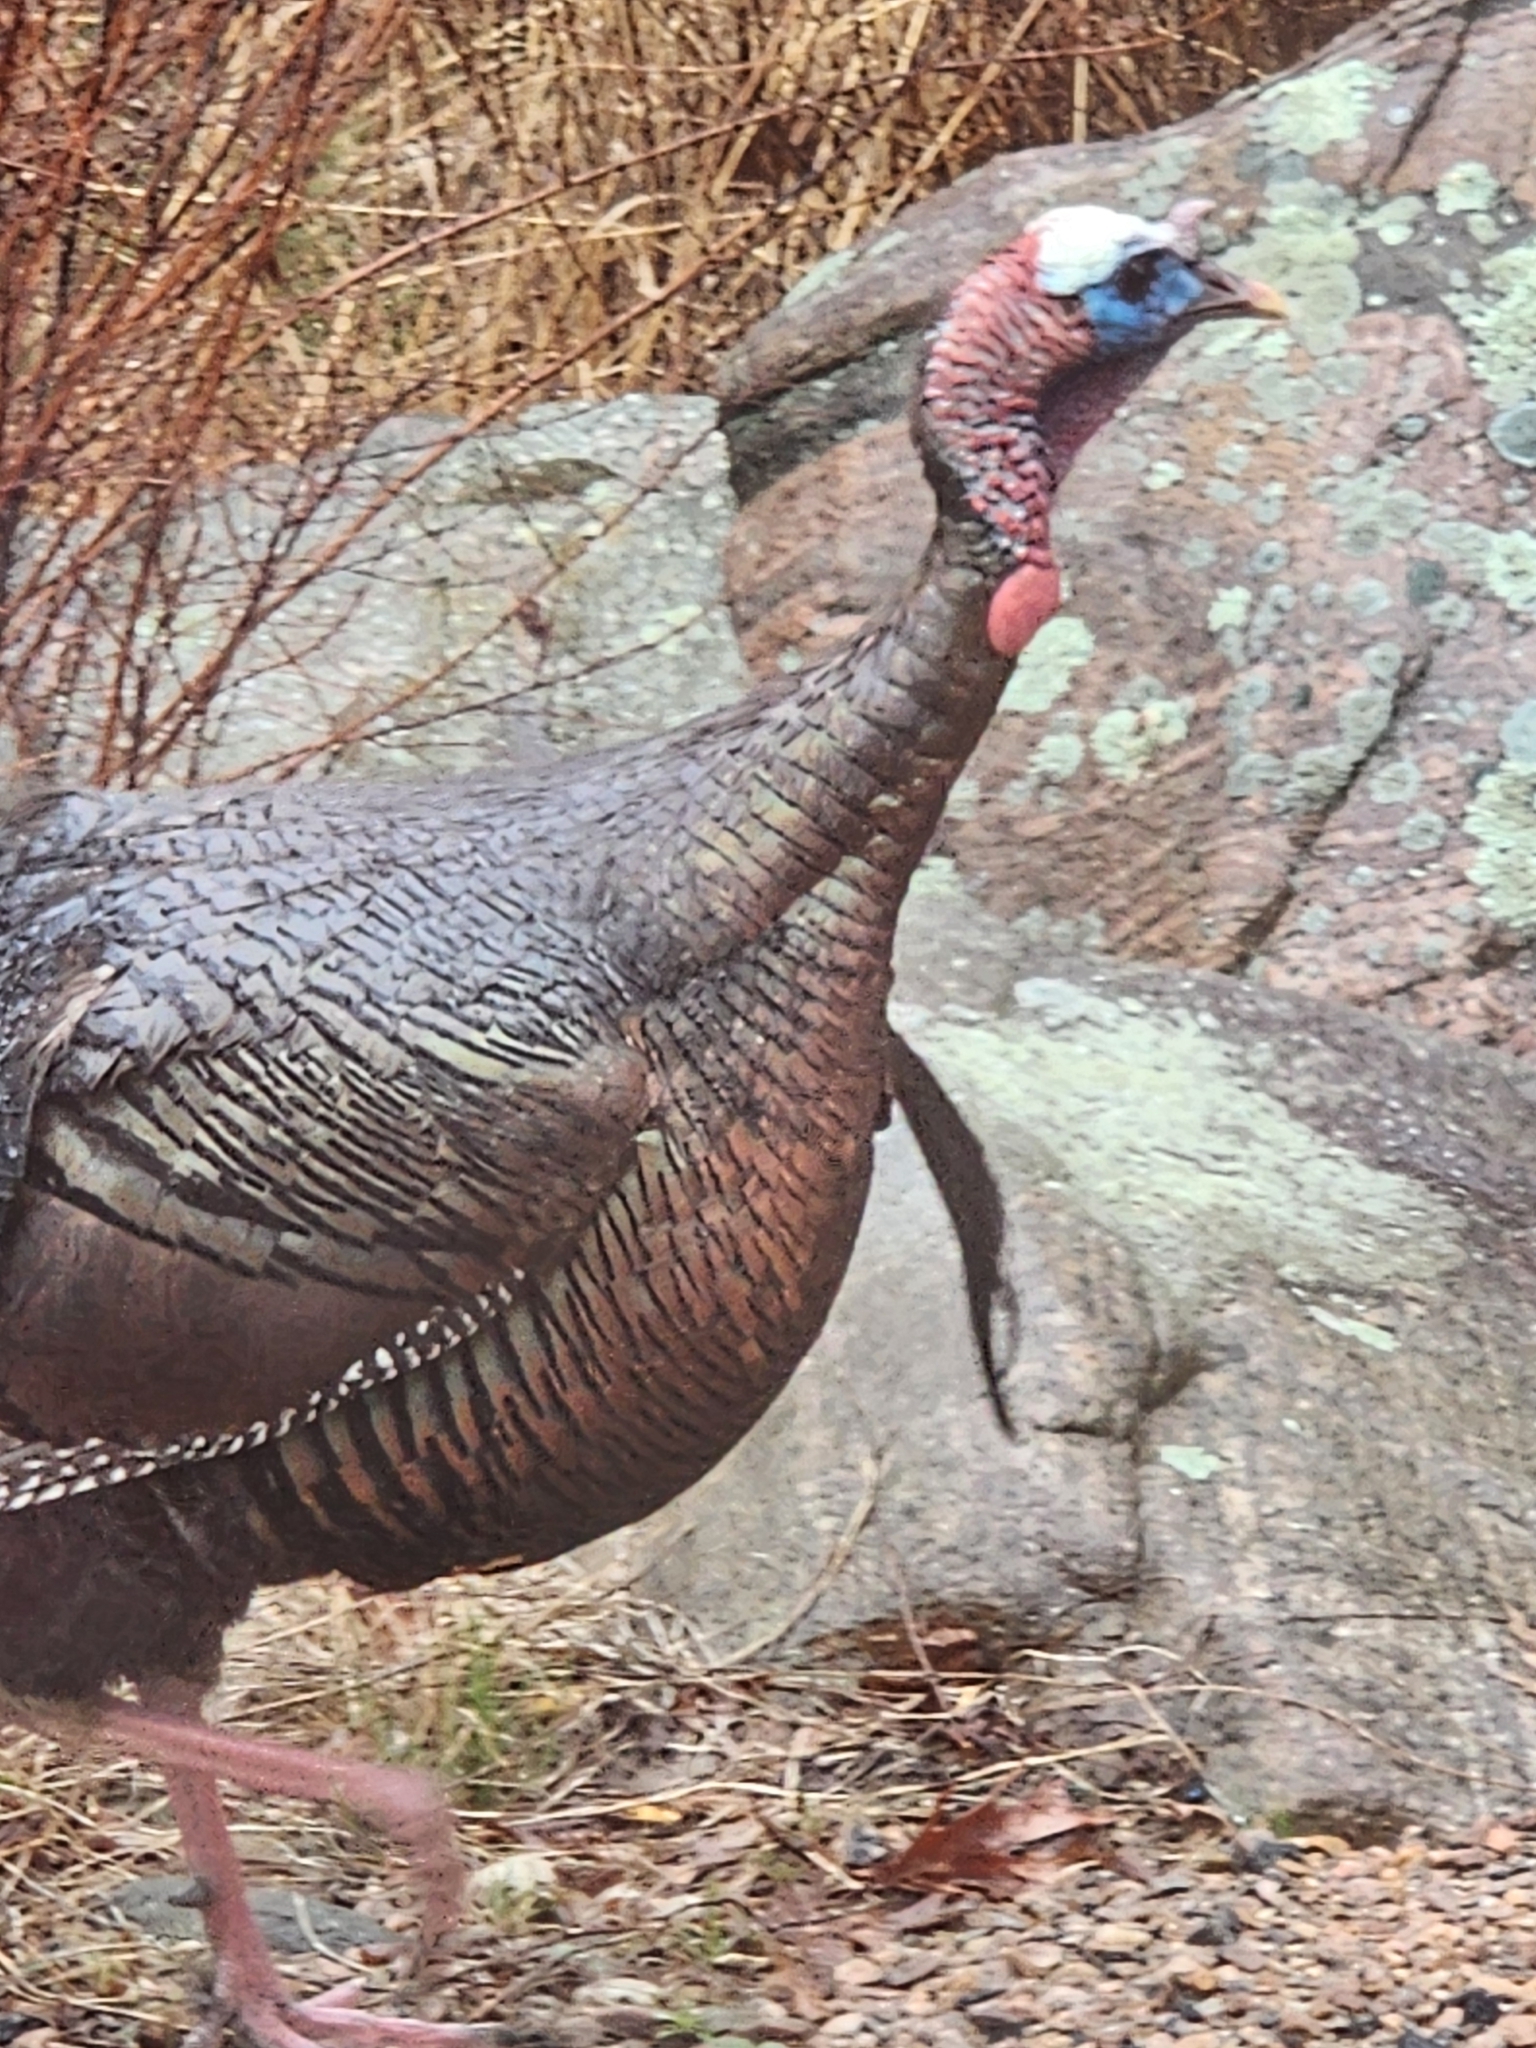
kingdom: Animalia
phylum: Chordata
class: Aves
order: Galliformes
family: Phasianidae
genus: Meleagris
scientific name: Meleagris gallopavo
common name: Wild turkey
